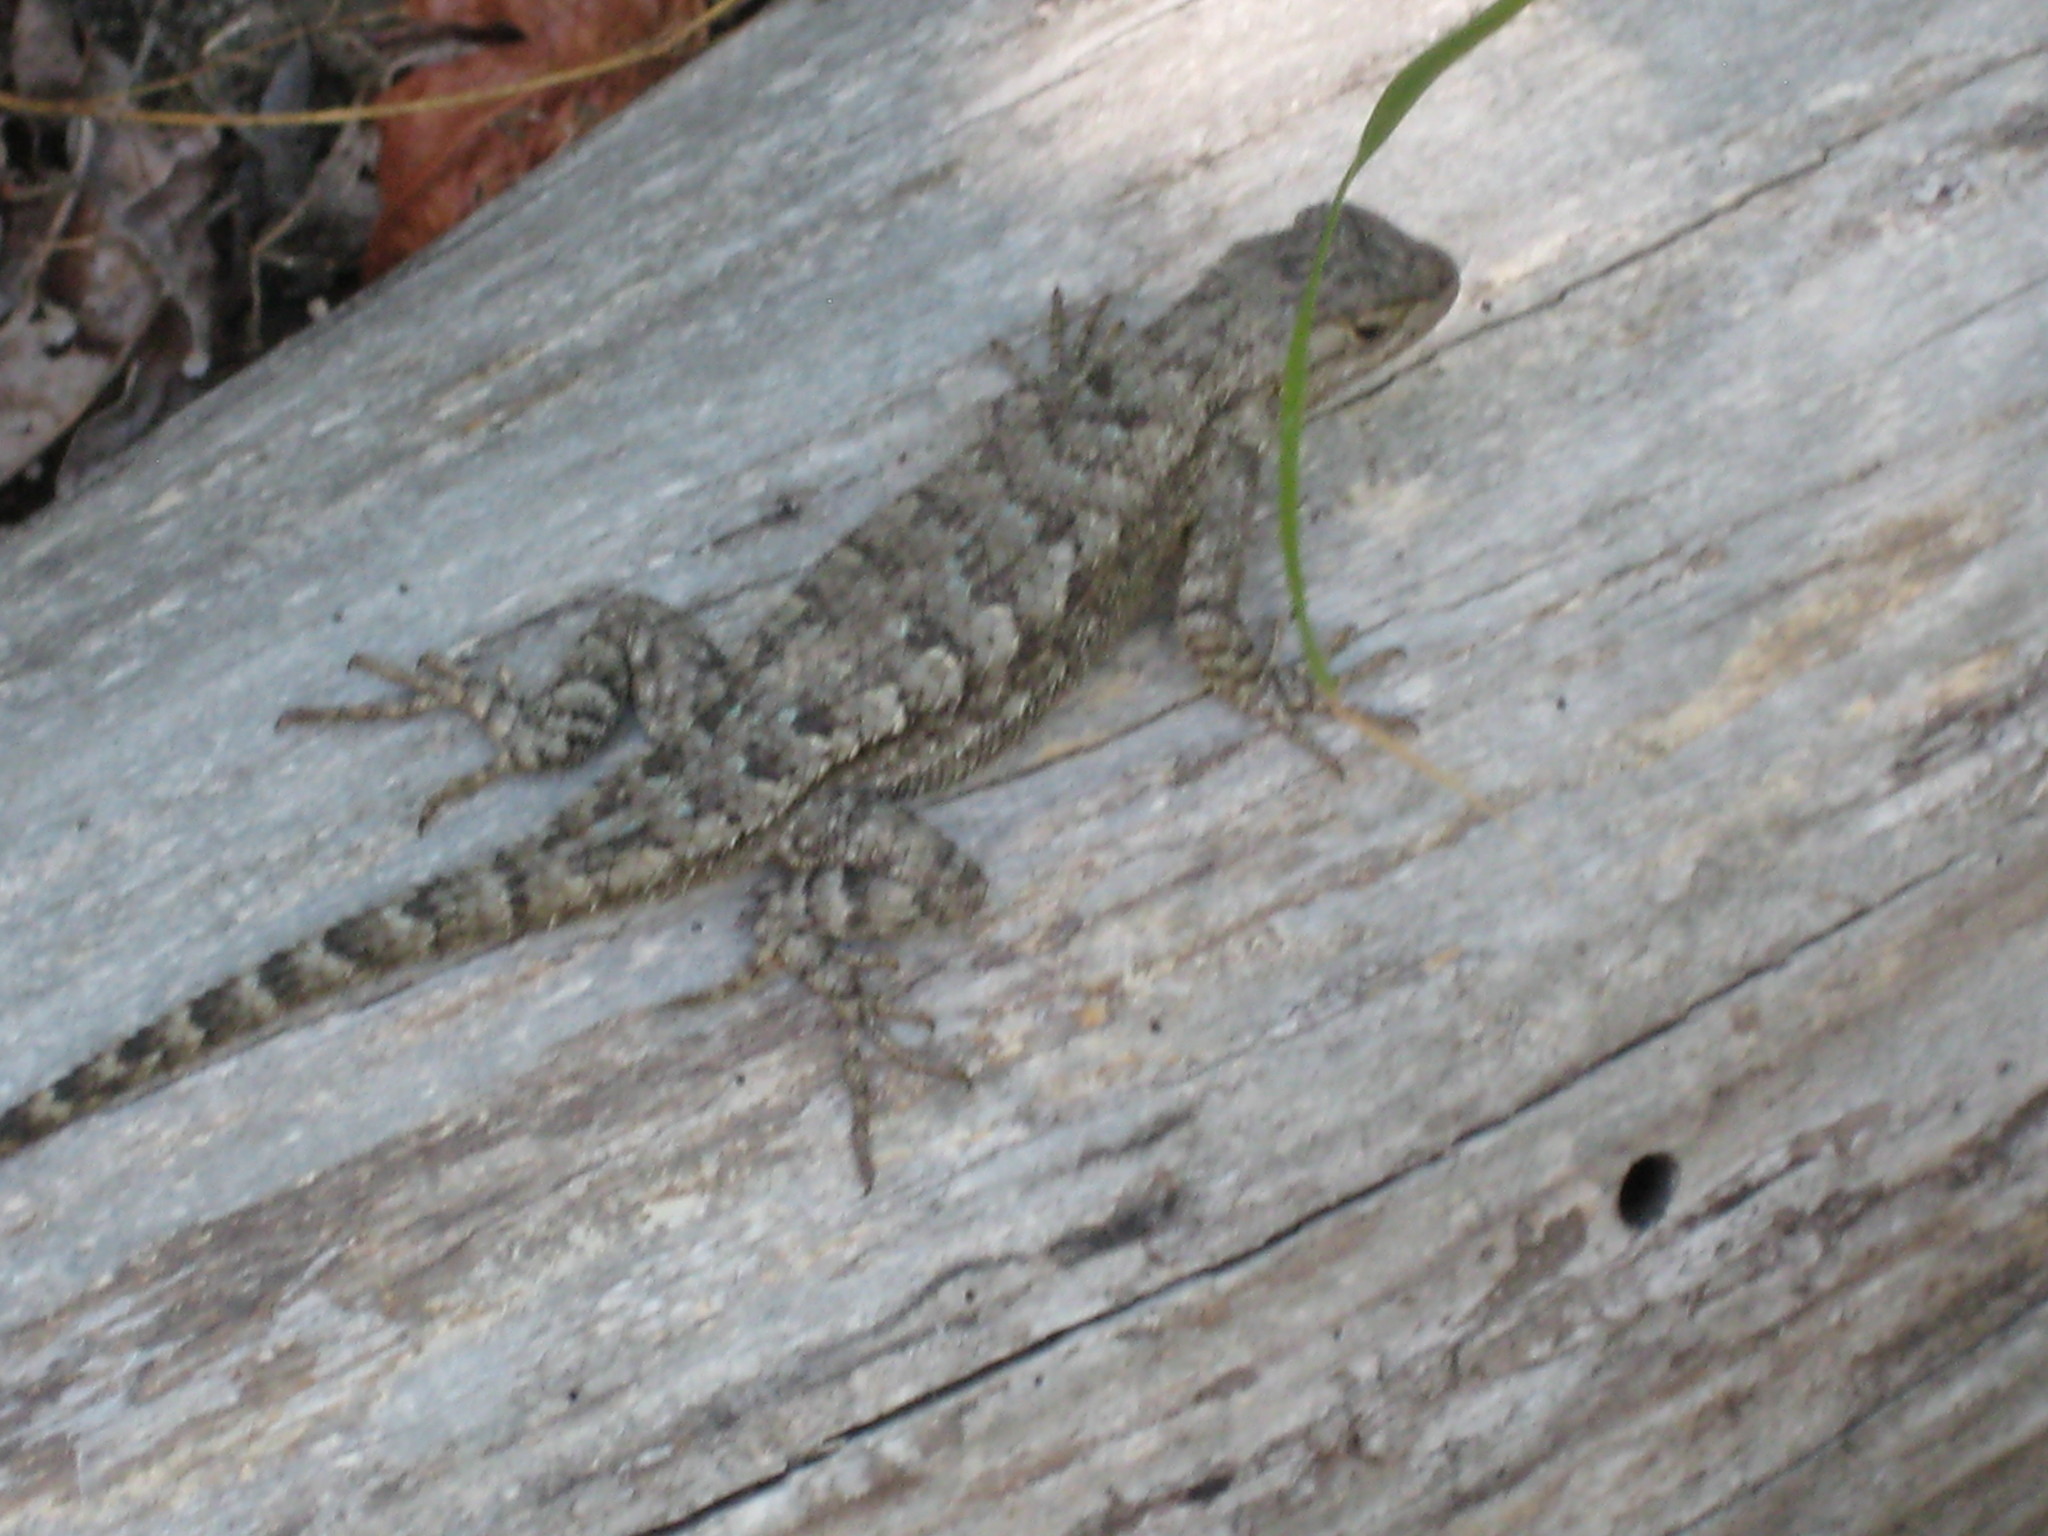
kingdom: Animalia
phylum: Chordata
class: Squamata
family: Phrynosomatidae
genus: Sceloporus
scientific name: Sceloporus occidentalis
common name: Western fence lizard
